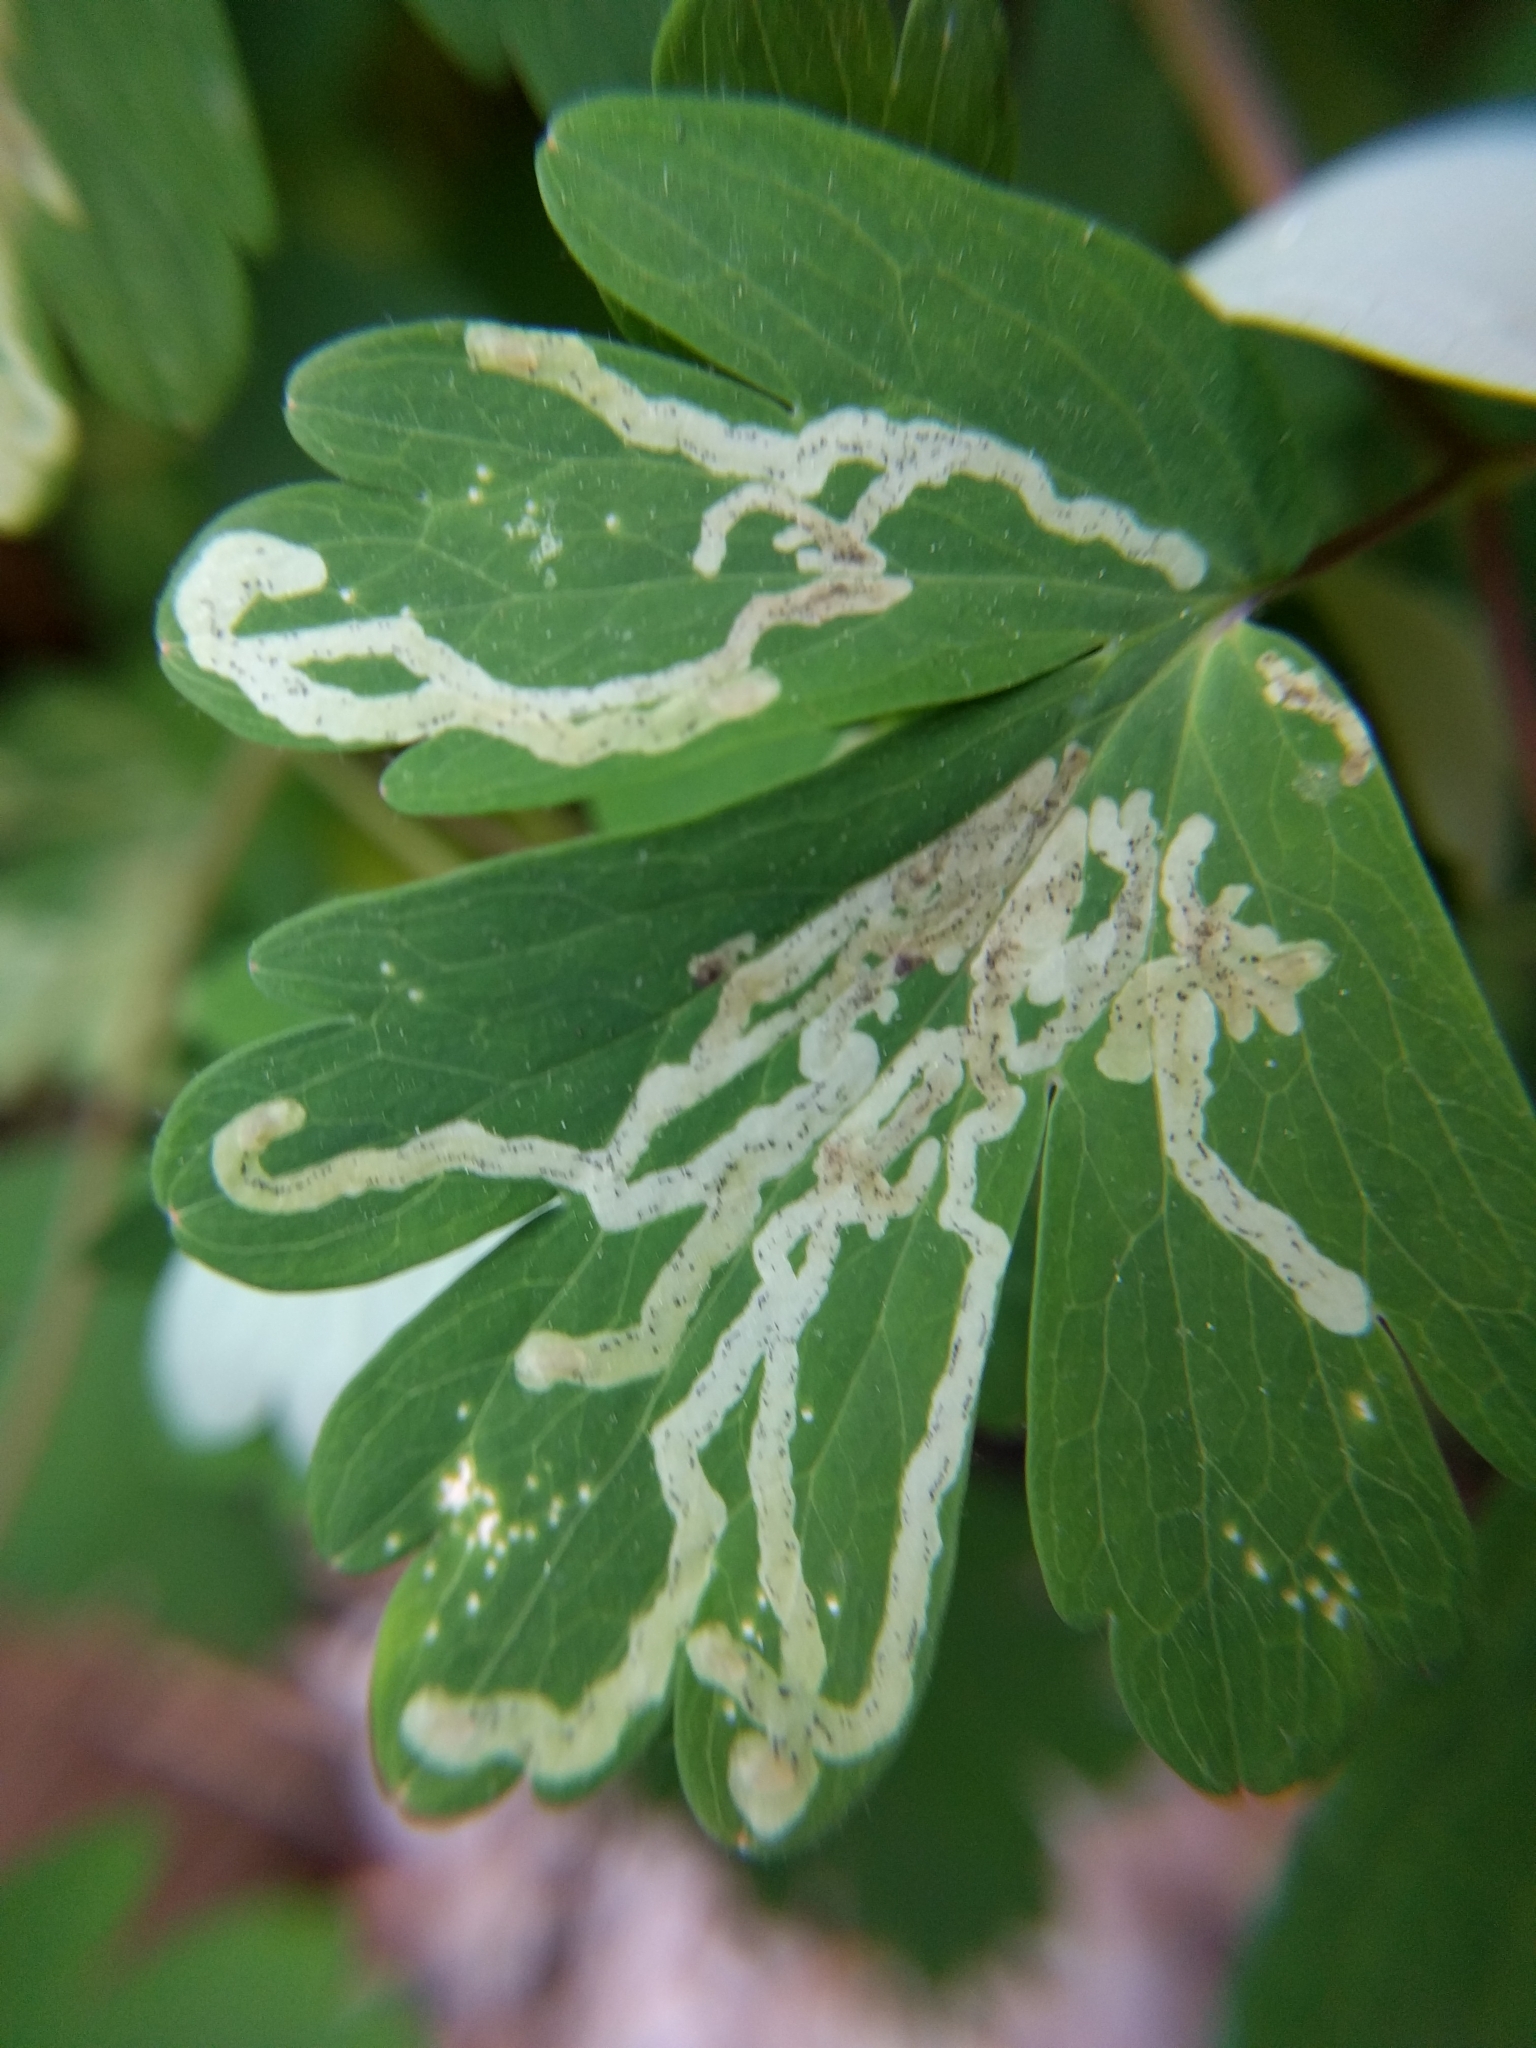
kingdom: Animalia
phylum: Arthropoda
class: Insecta
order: Diptera
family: Agromyzidae
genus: Phytomyza
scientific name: Phytomyza
